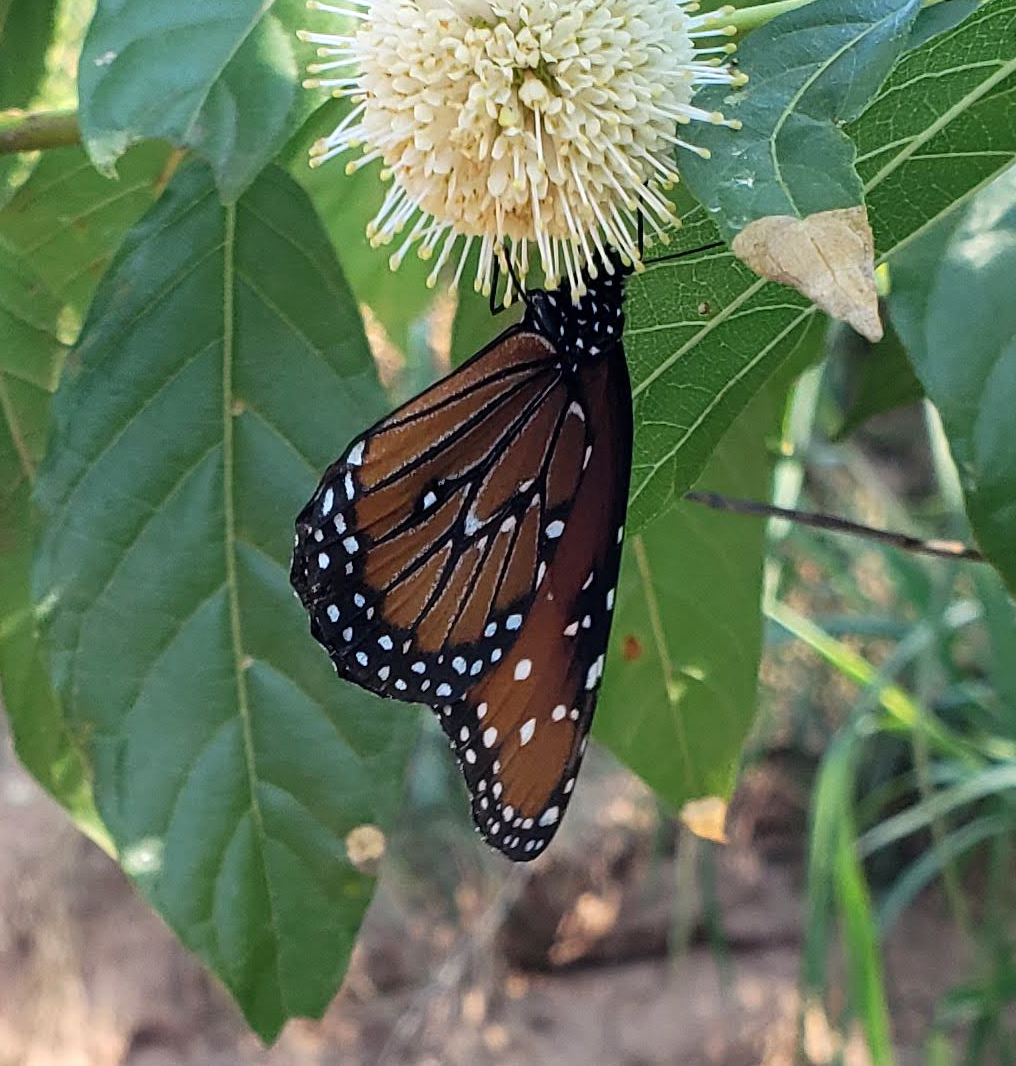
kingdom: Animalia
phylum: Arthropoda
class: Insecta
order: Lepidoptera
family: Nymphalidae
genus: Danaus
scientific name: Danaus gilippus
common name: Queen
